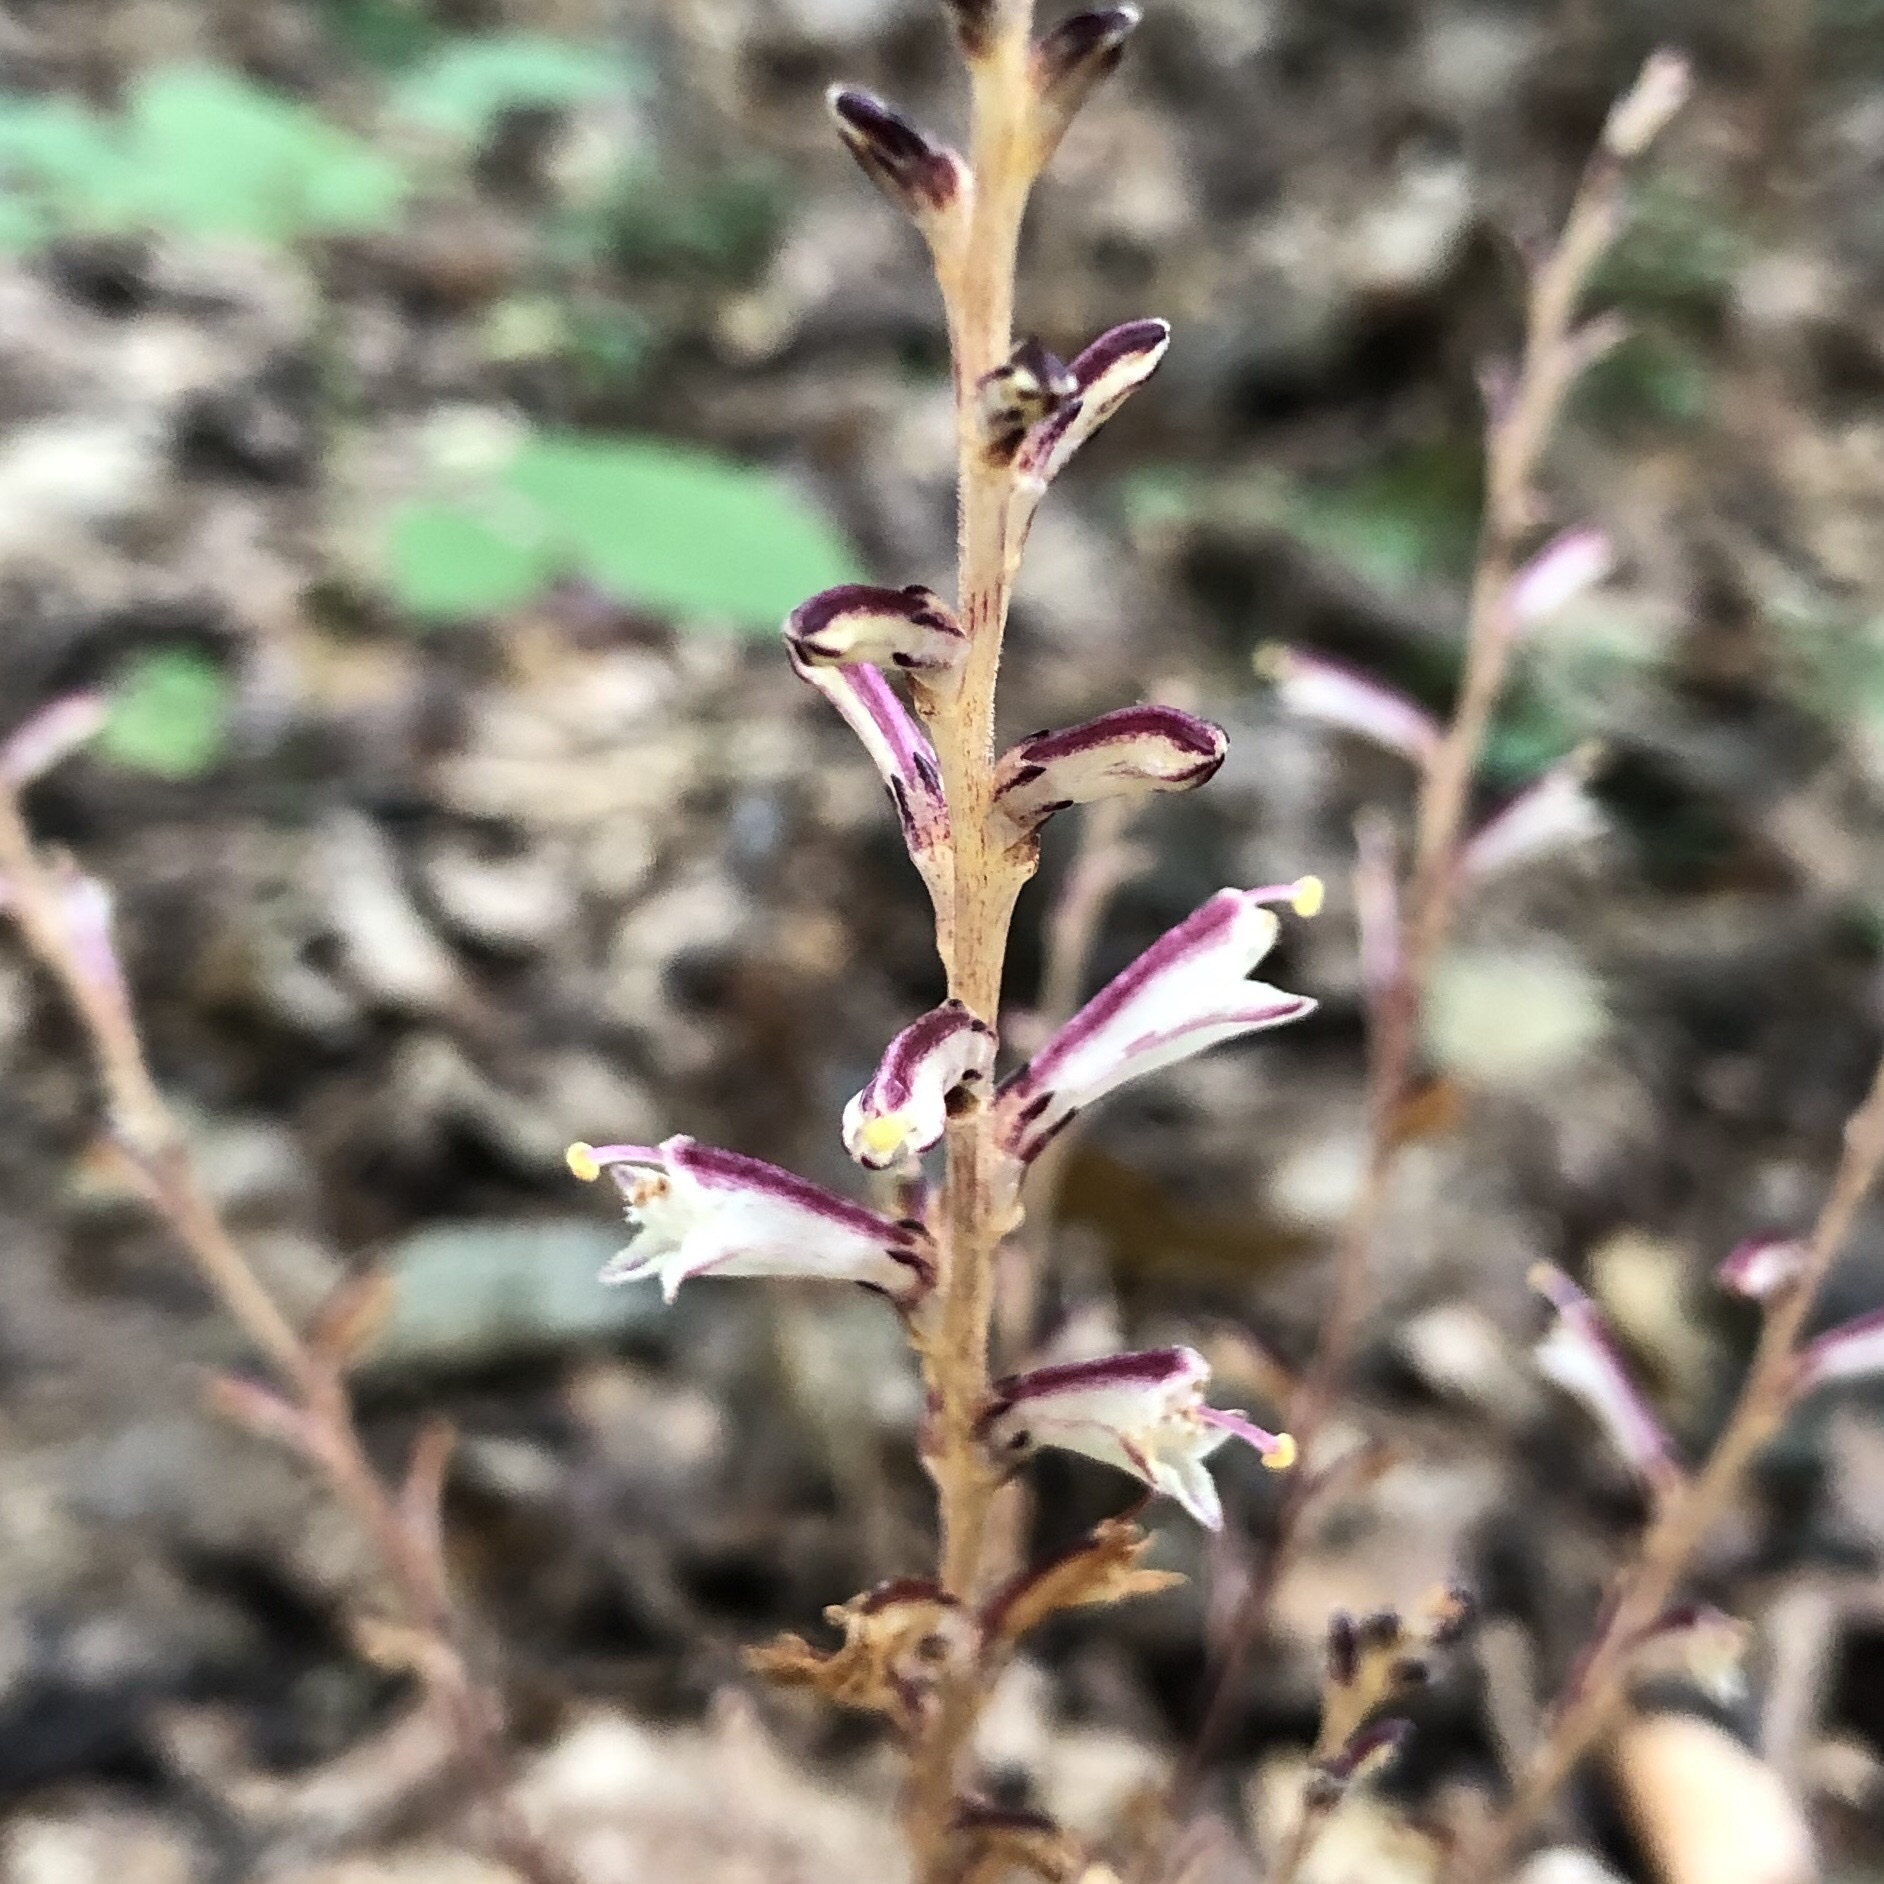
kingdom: Plantae
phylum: Tracheophyta
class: Magnoliopsida
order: Lamiales
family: Orobanchaceae
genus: Epifagus
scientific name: Epifagus virginiana
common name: Beechdrops
